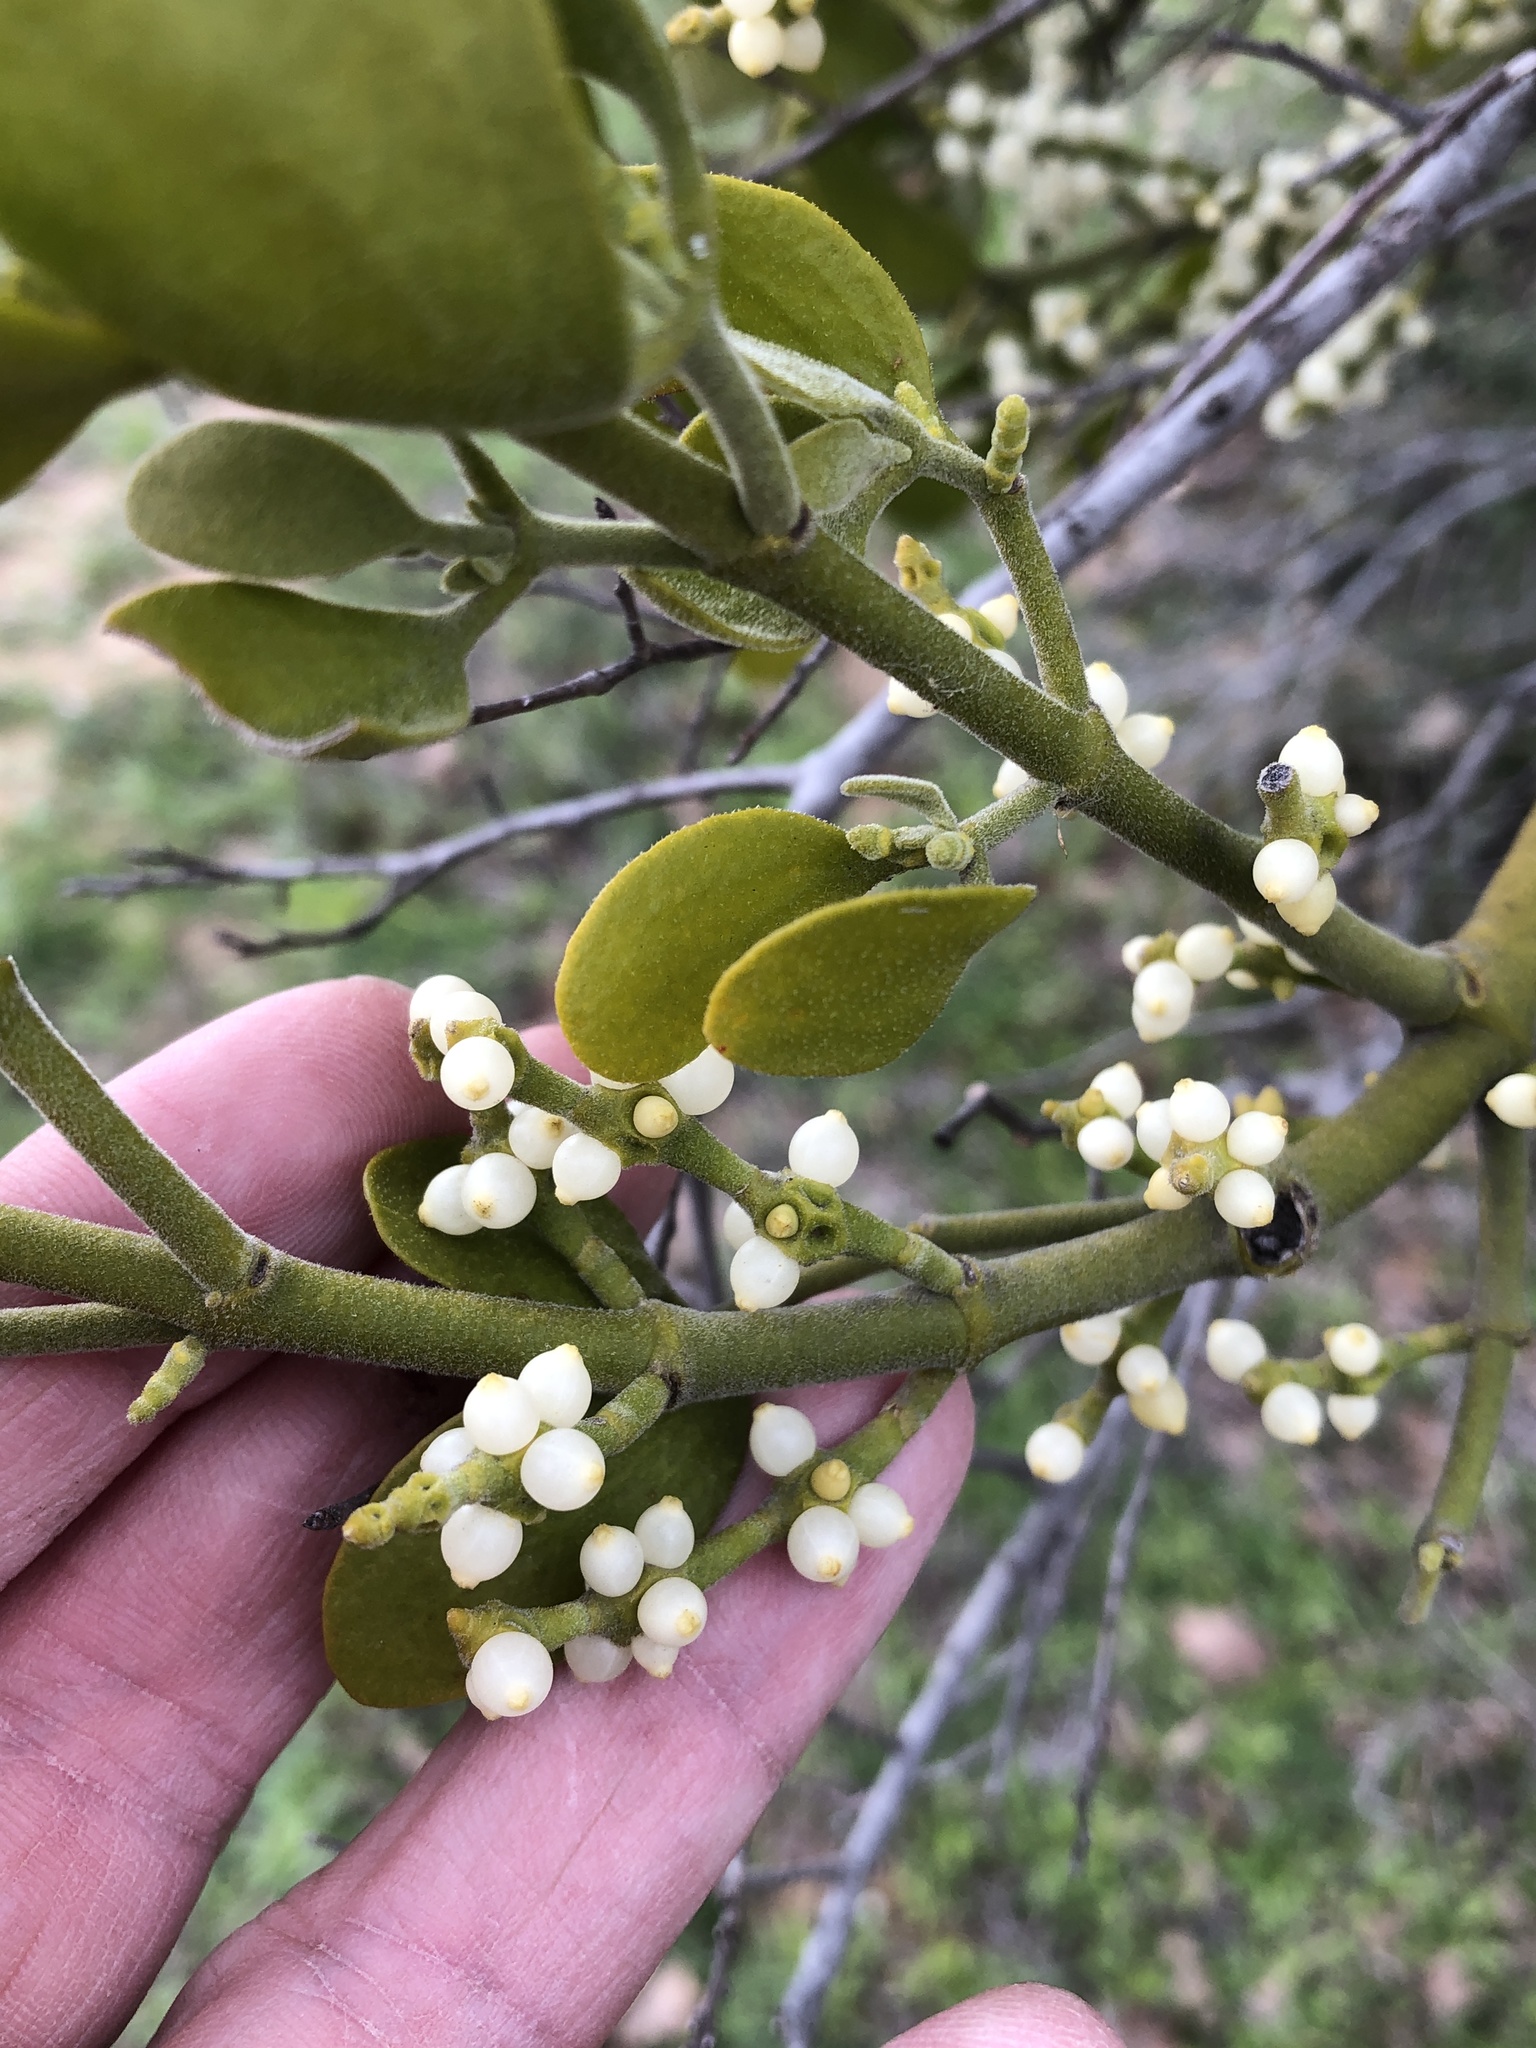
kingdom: Plantae
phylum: Tracheophyta
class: Magnoliopsida
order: Santalales
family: Viscaceae
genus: Phoradendron
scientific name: Phoradendron leucarpum
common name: Pacific mistletoe
